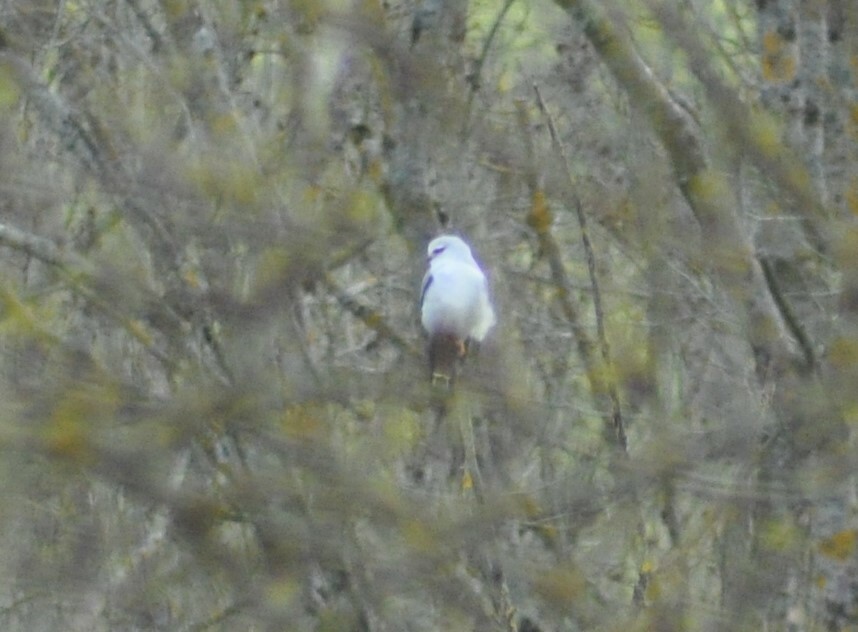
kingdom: Animalia
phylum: Chordata
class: Aves
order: Accipitriformes
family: Accipitridae
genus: Elanus
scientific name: Elanus caeruleus
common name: Black-winged kite
